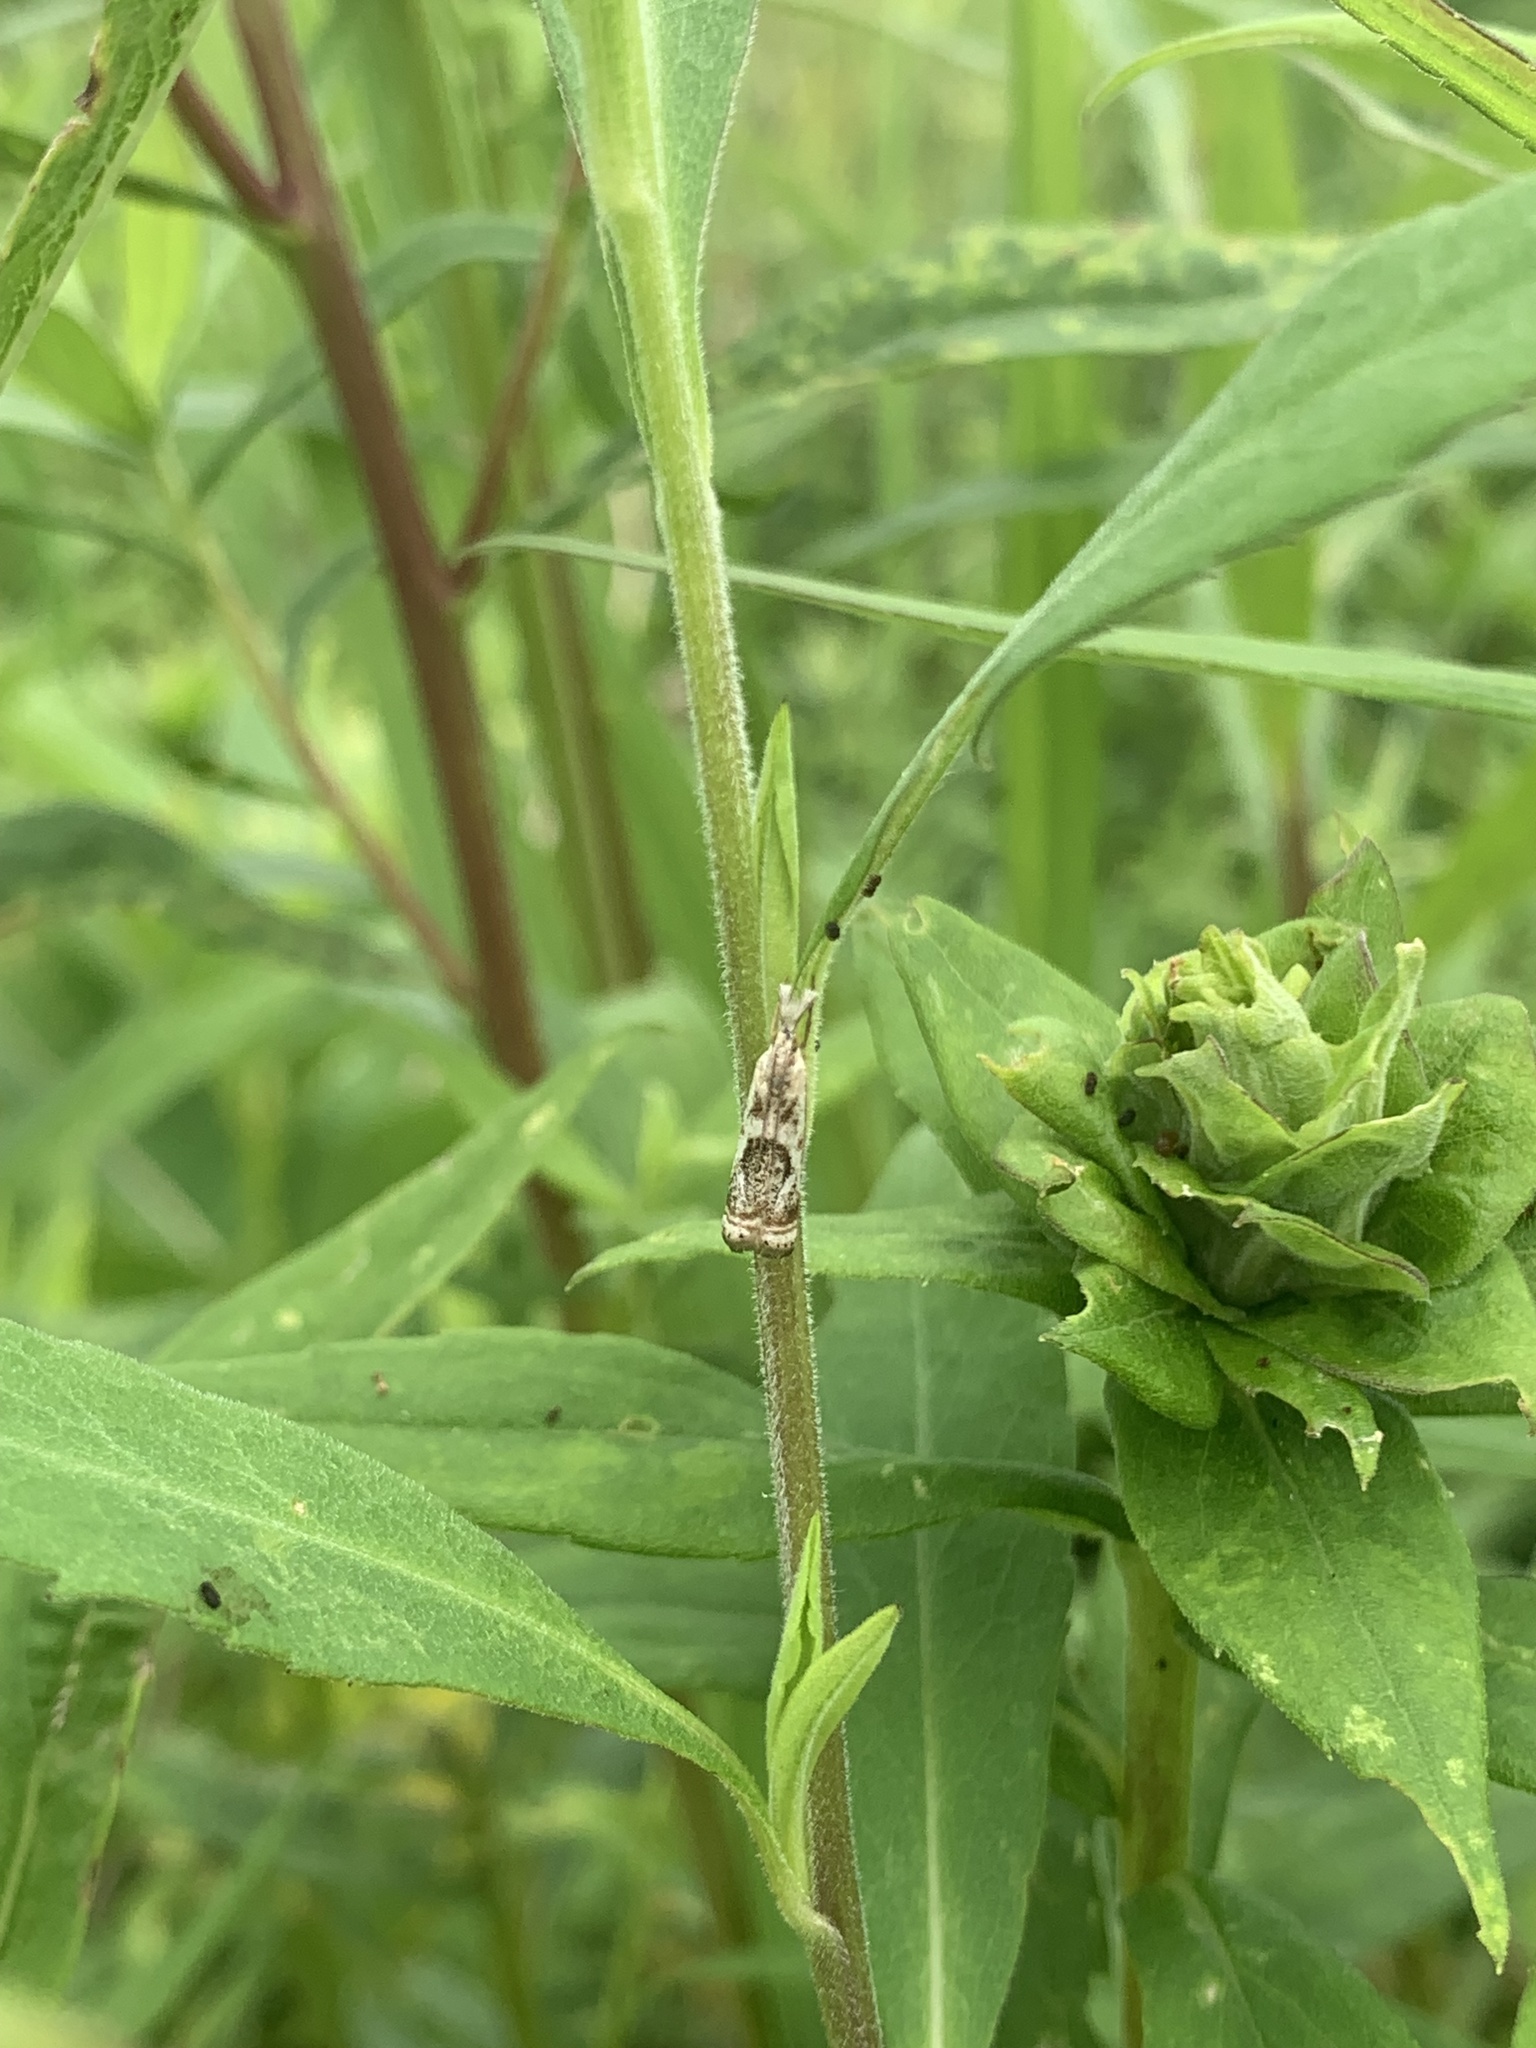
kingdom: Animalia
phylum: Arthropoda
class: Insecta
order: Lepidoptera
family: Crambidae
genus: Microcrambus
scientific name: Microcrambus elegans
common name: Elegant grass-veneer
